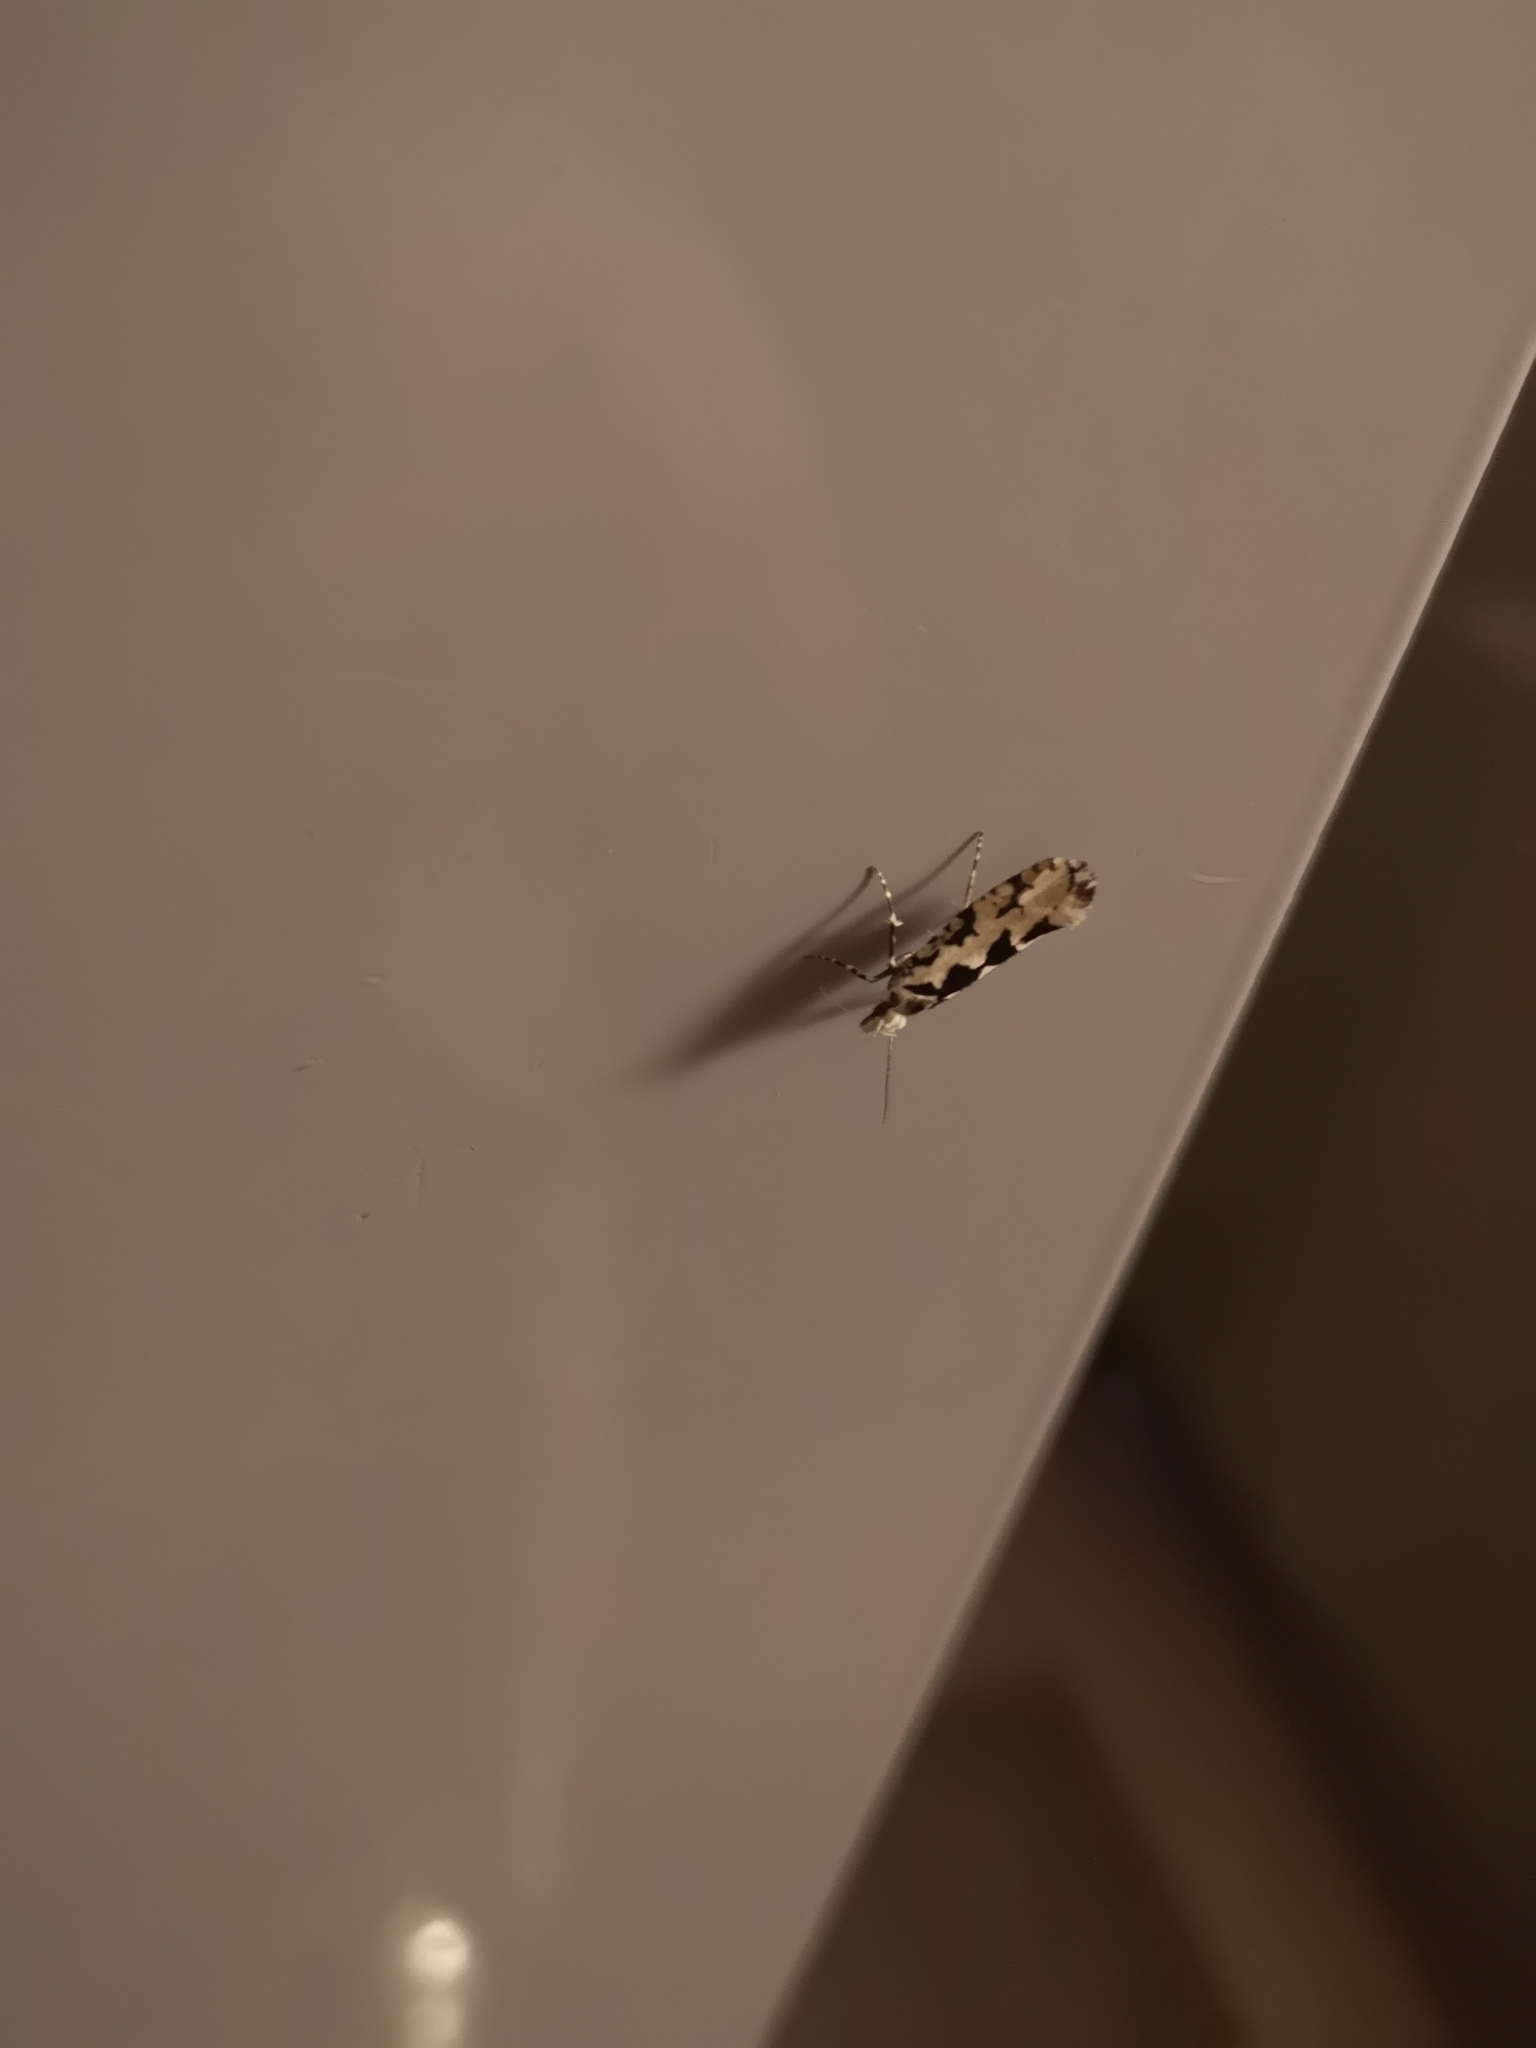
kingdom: Animalia
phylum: Arthropoda
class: Insecta
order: Lepidoptera
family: Plutellidae
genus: Ypsolophus
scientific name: Ypsolophus sequella
